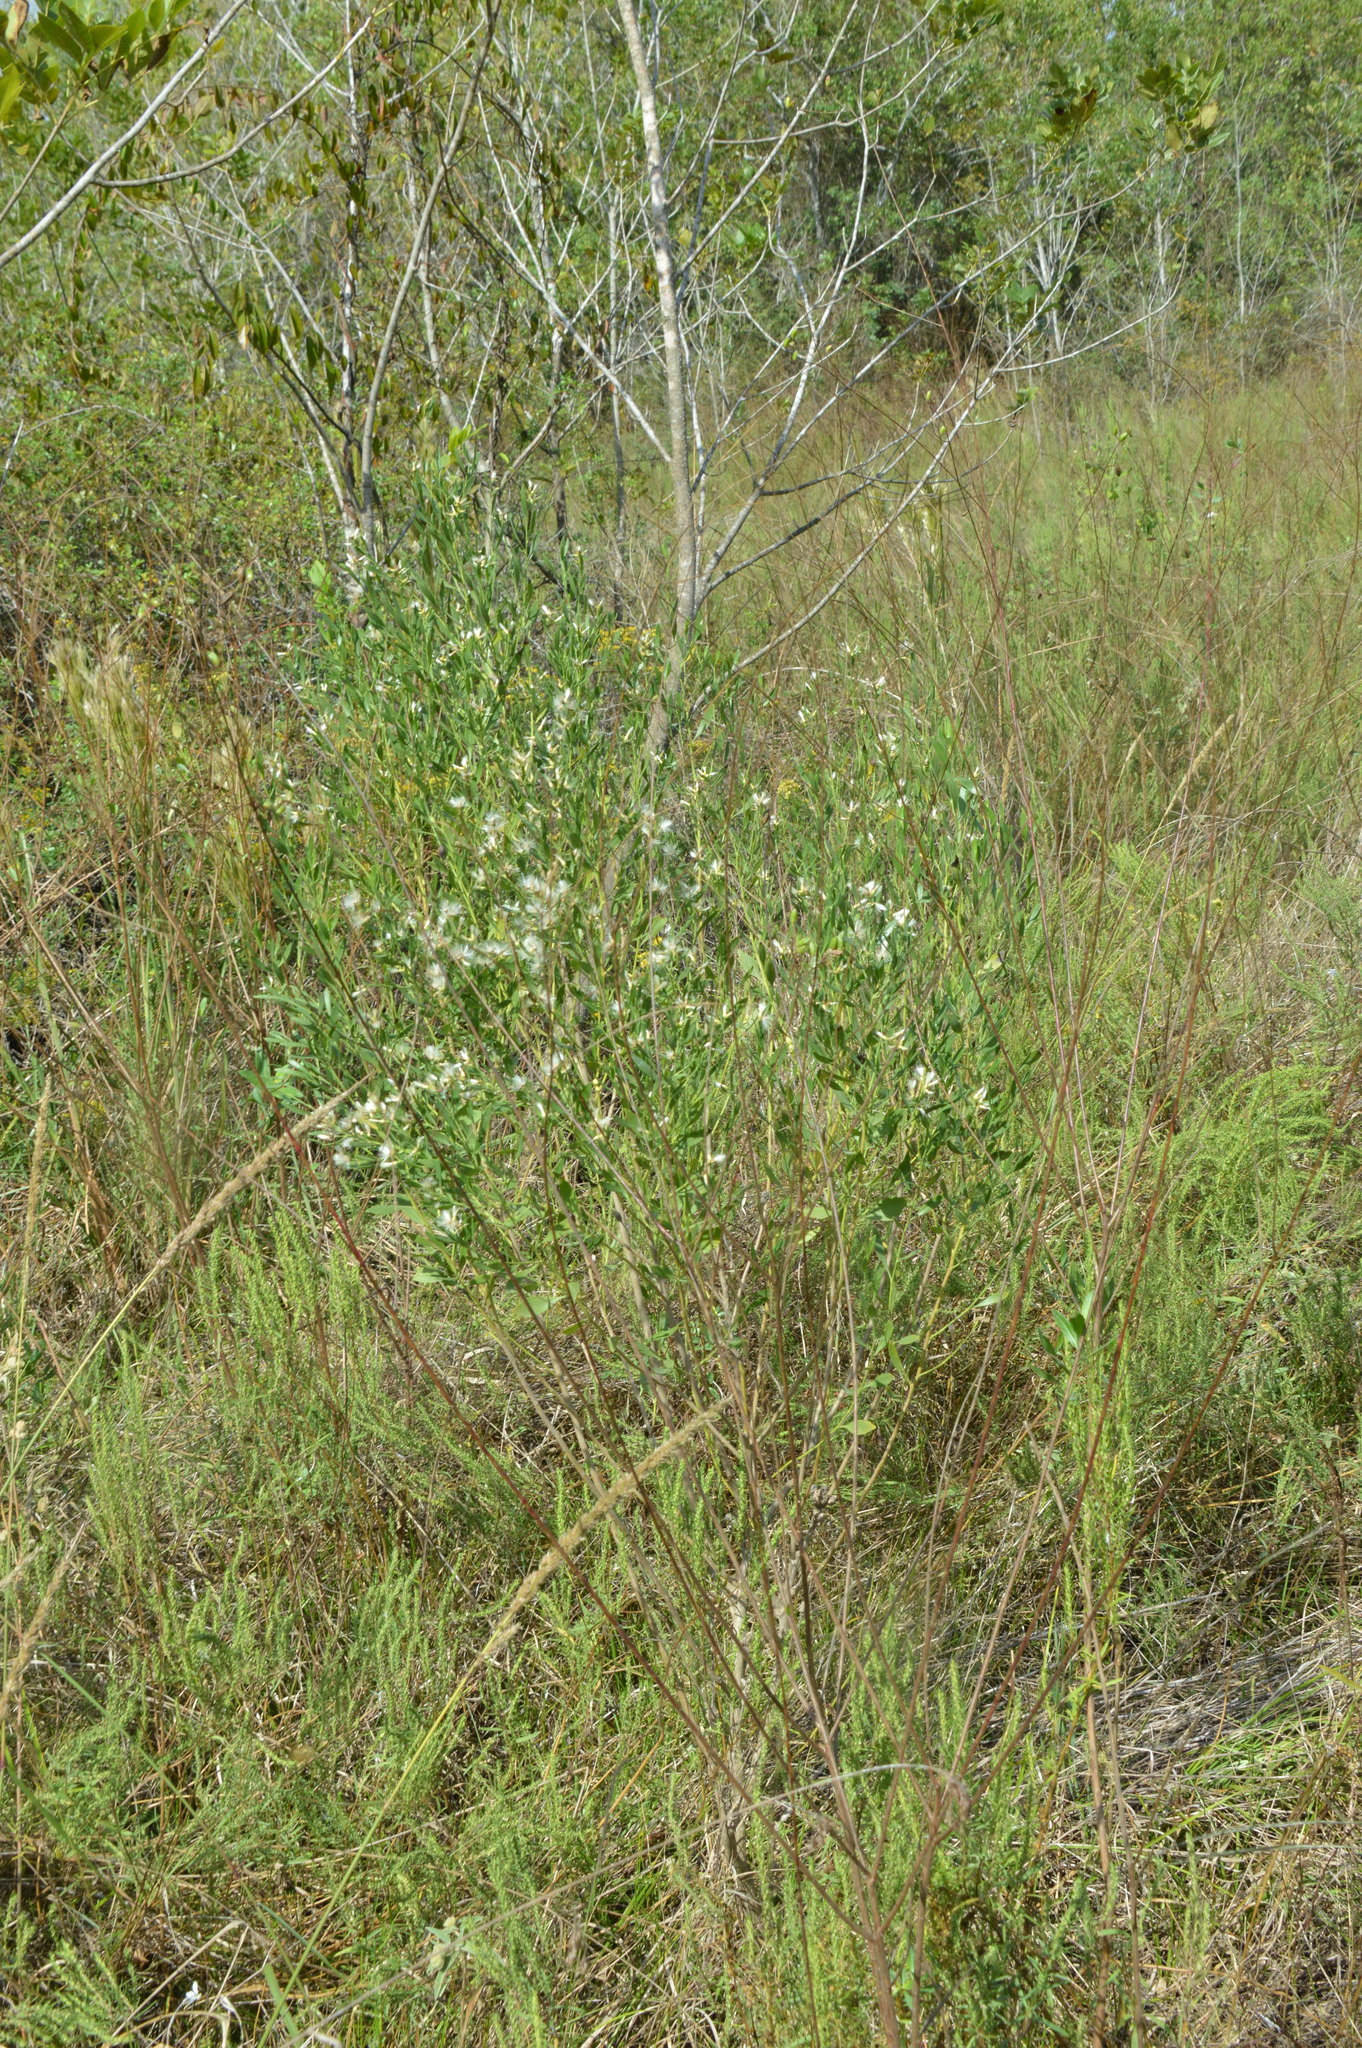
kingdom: Plantae
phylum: Tracheophyta
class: Magnoliopsida
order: Asterales
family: Asteraceae
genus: Baccharis
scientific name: Baccharis halimifolia
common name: Eastern baccharis
